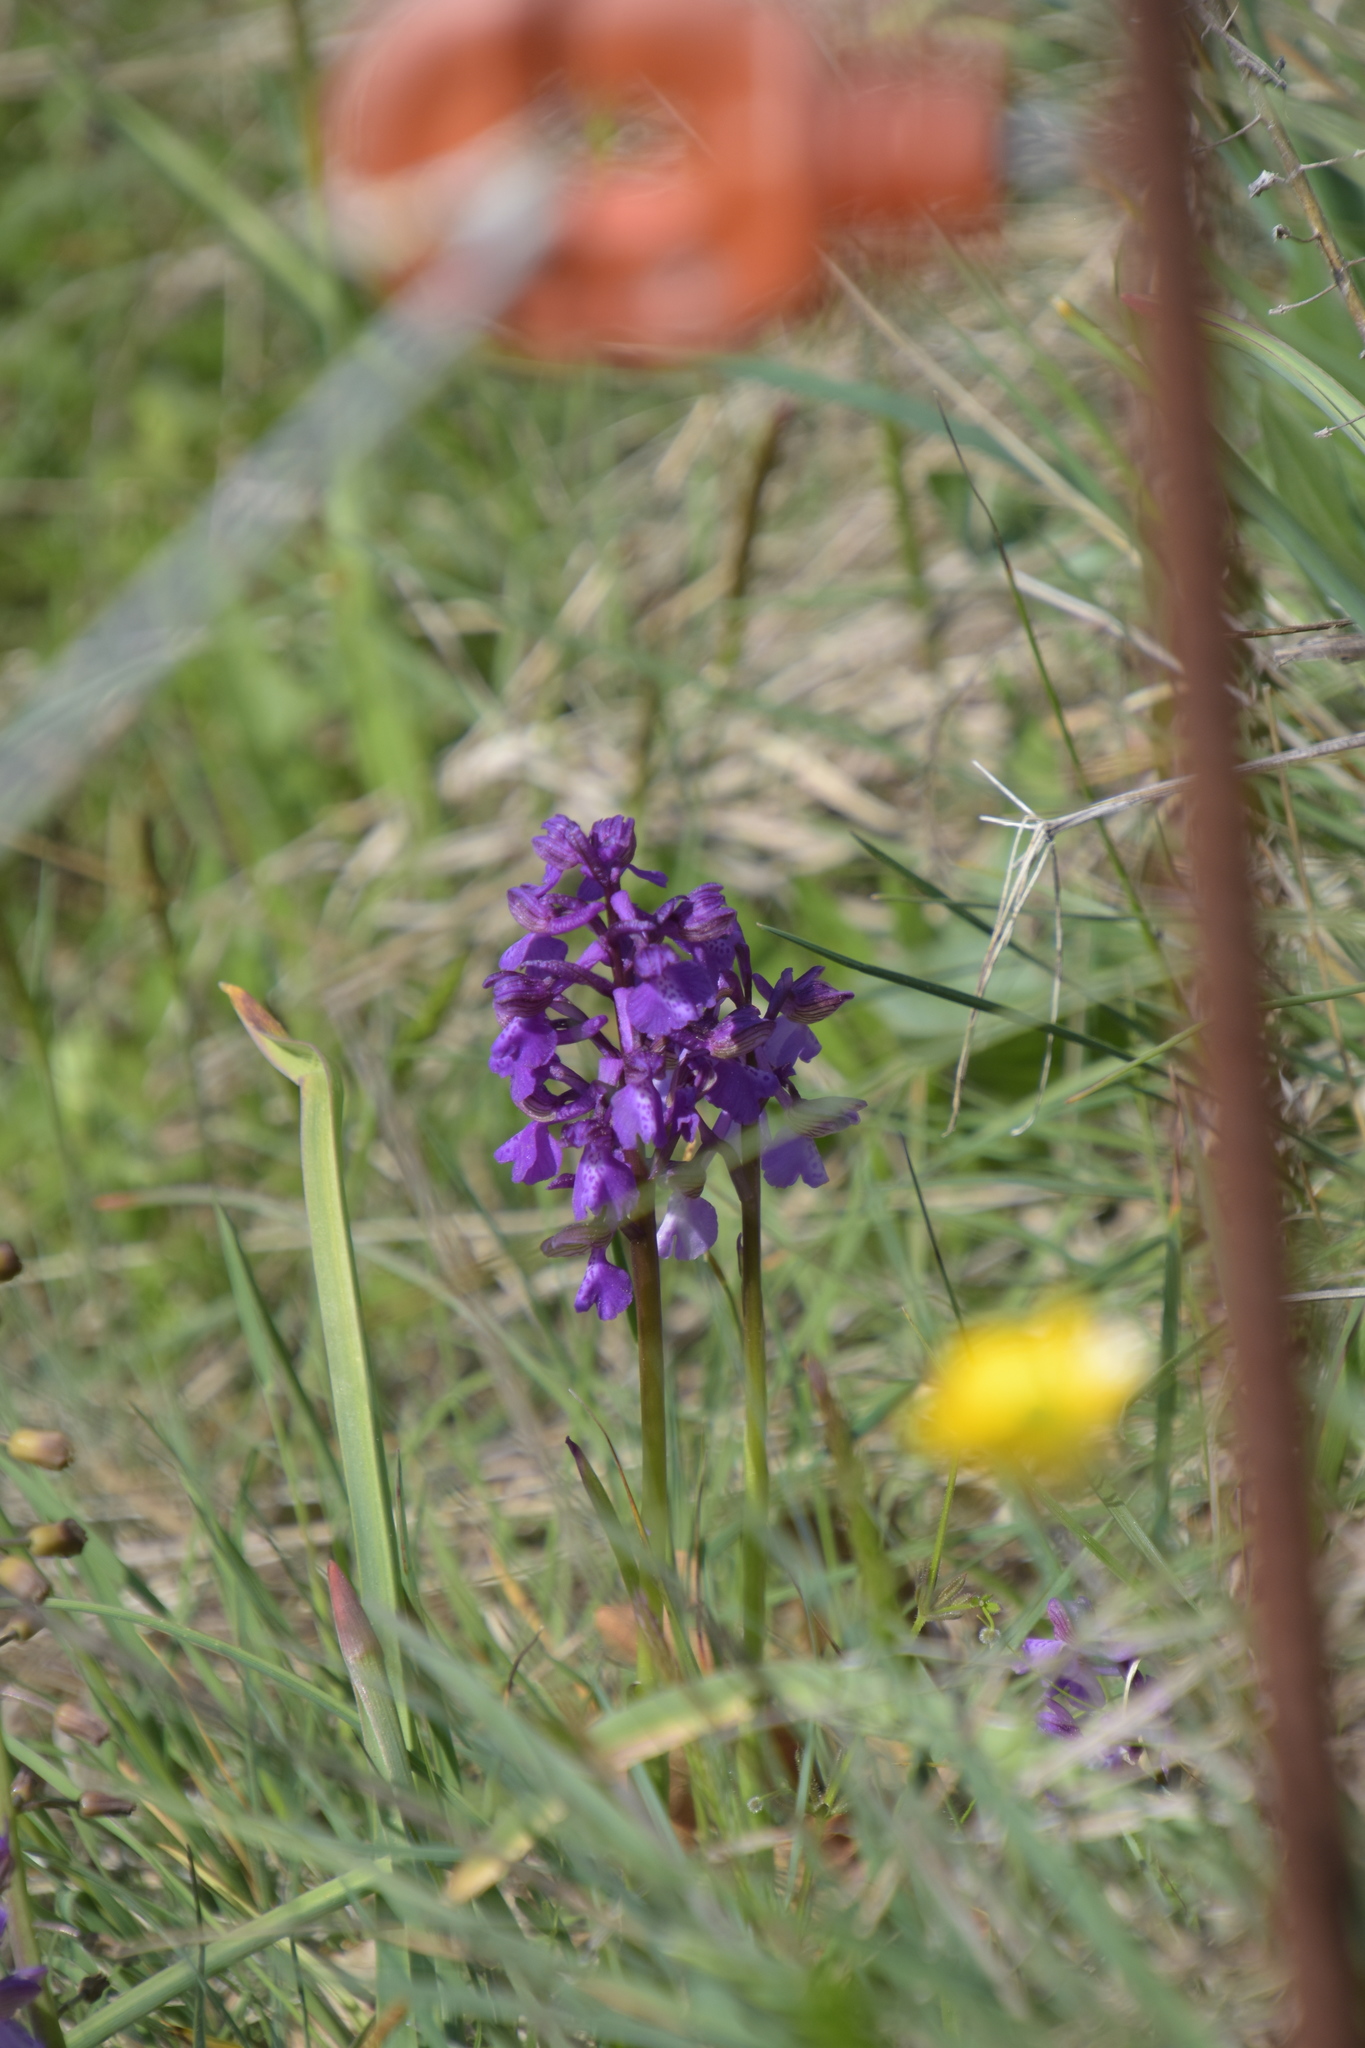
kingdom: Plantae
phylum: Tracheophyta
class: Liliopsida
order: Asparagales
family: Orchidaceae
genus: Anacamptis
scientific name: Anacamptis morio
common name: Green-winged orchid
